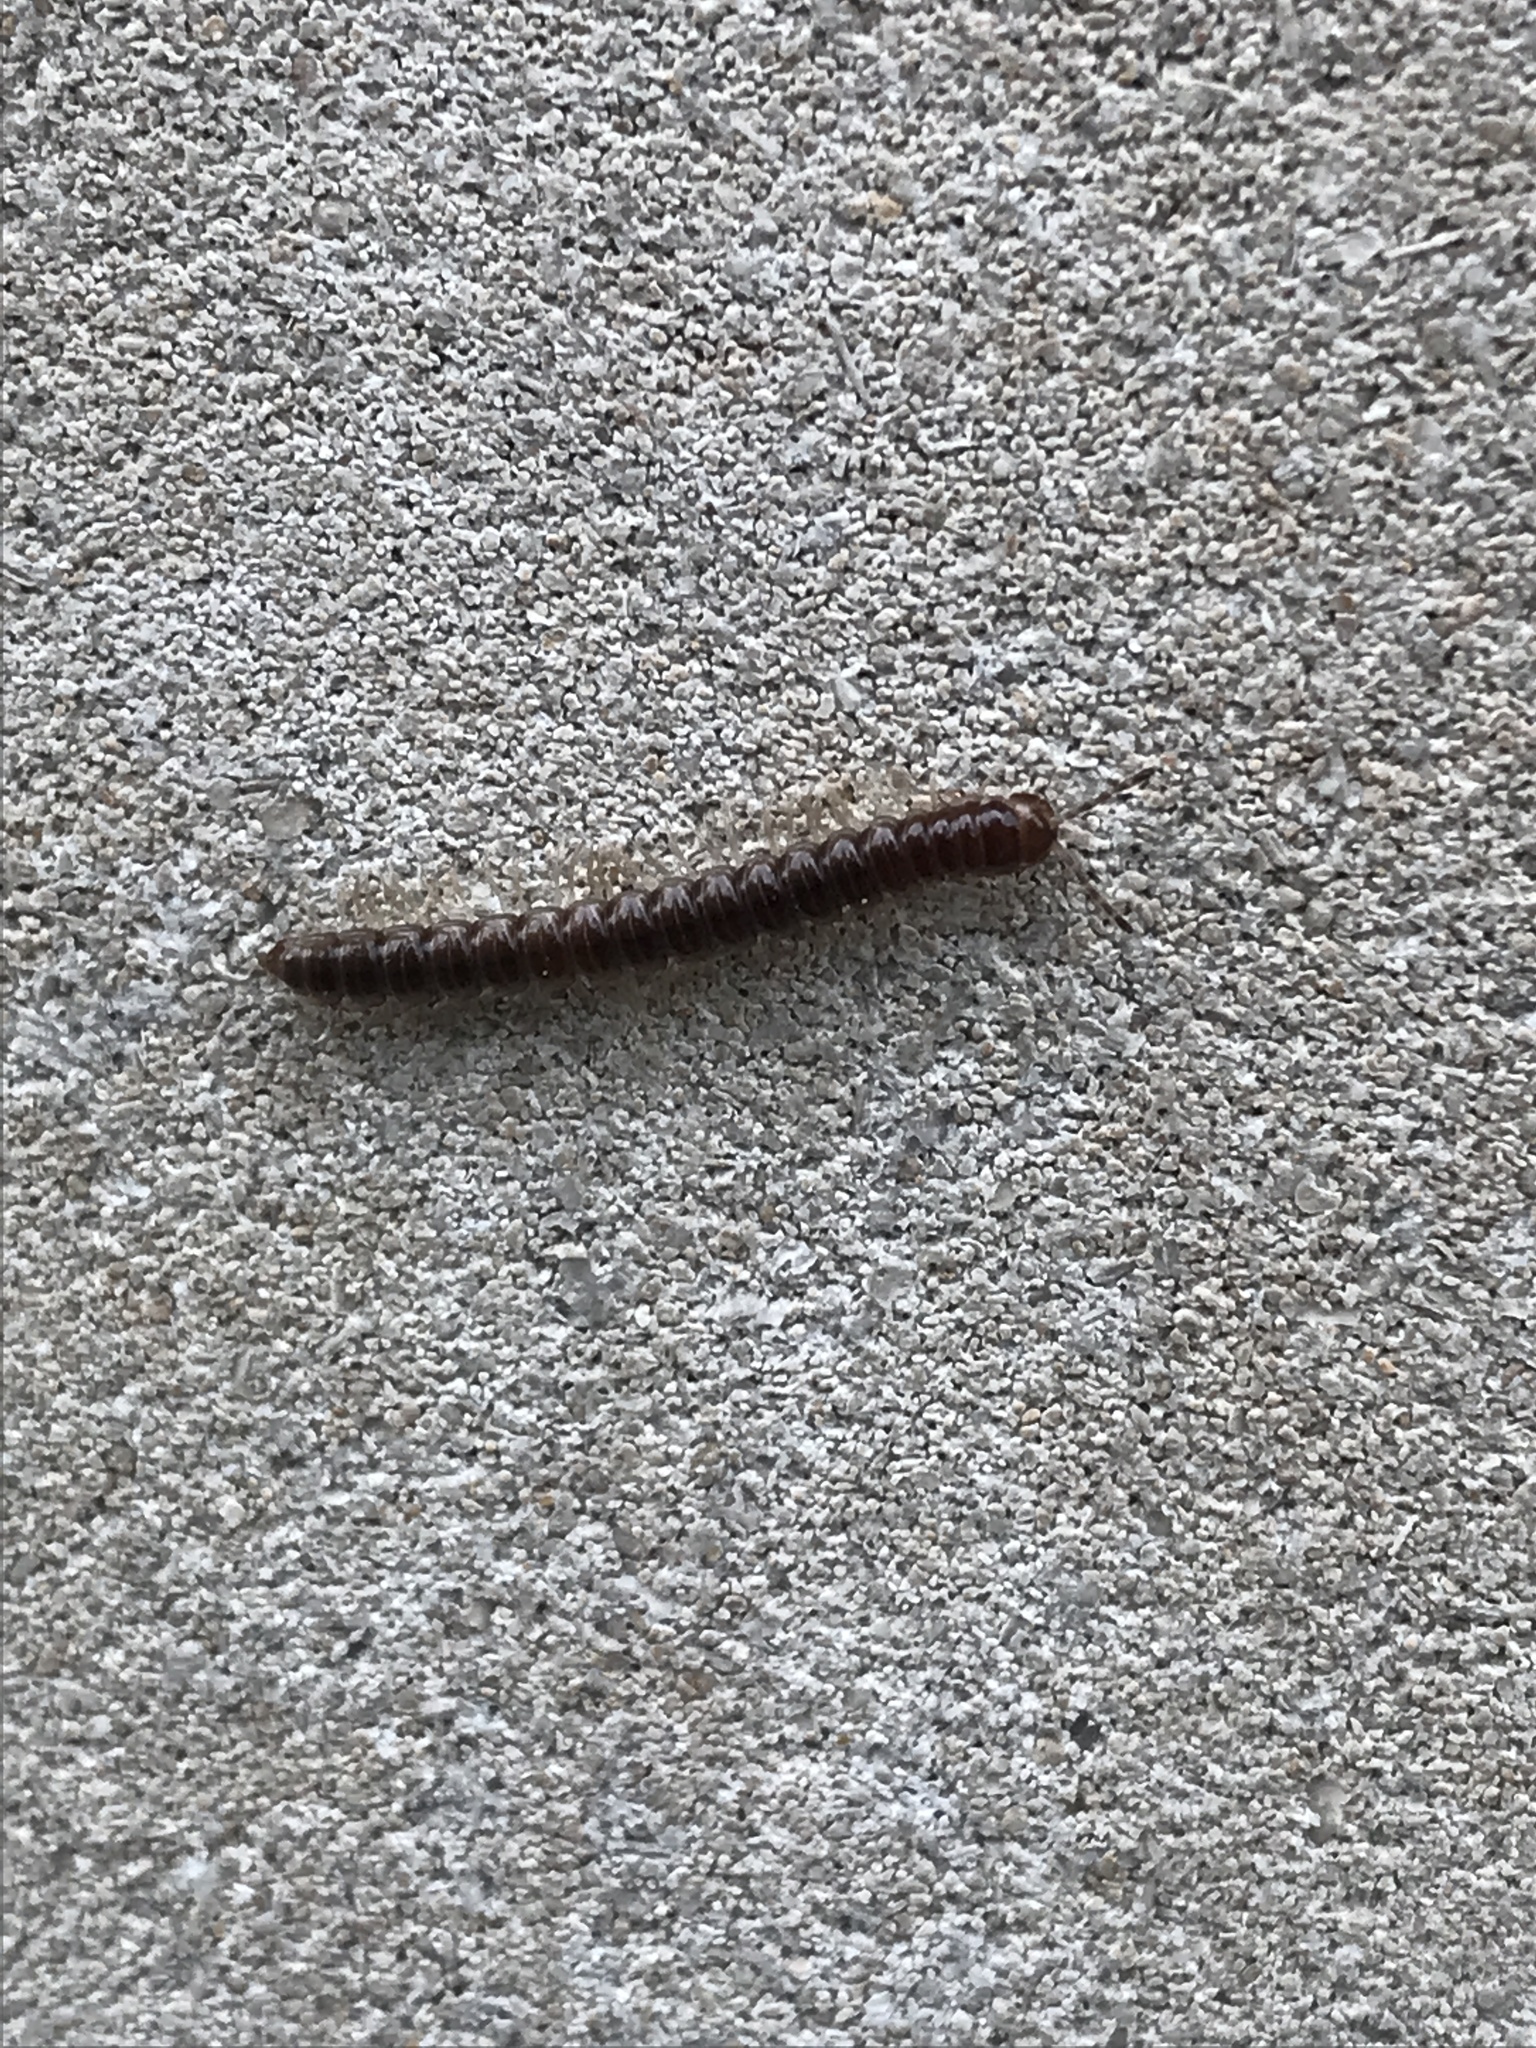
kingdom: Animalia
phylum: Arthropoda
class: Diplopoda
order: Polydesmida
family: Paradoxosomatidae
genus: Oxidus
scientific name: Oxidus gracilis
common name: Greenhouse millipede
